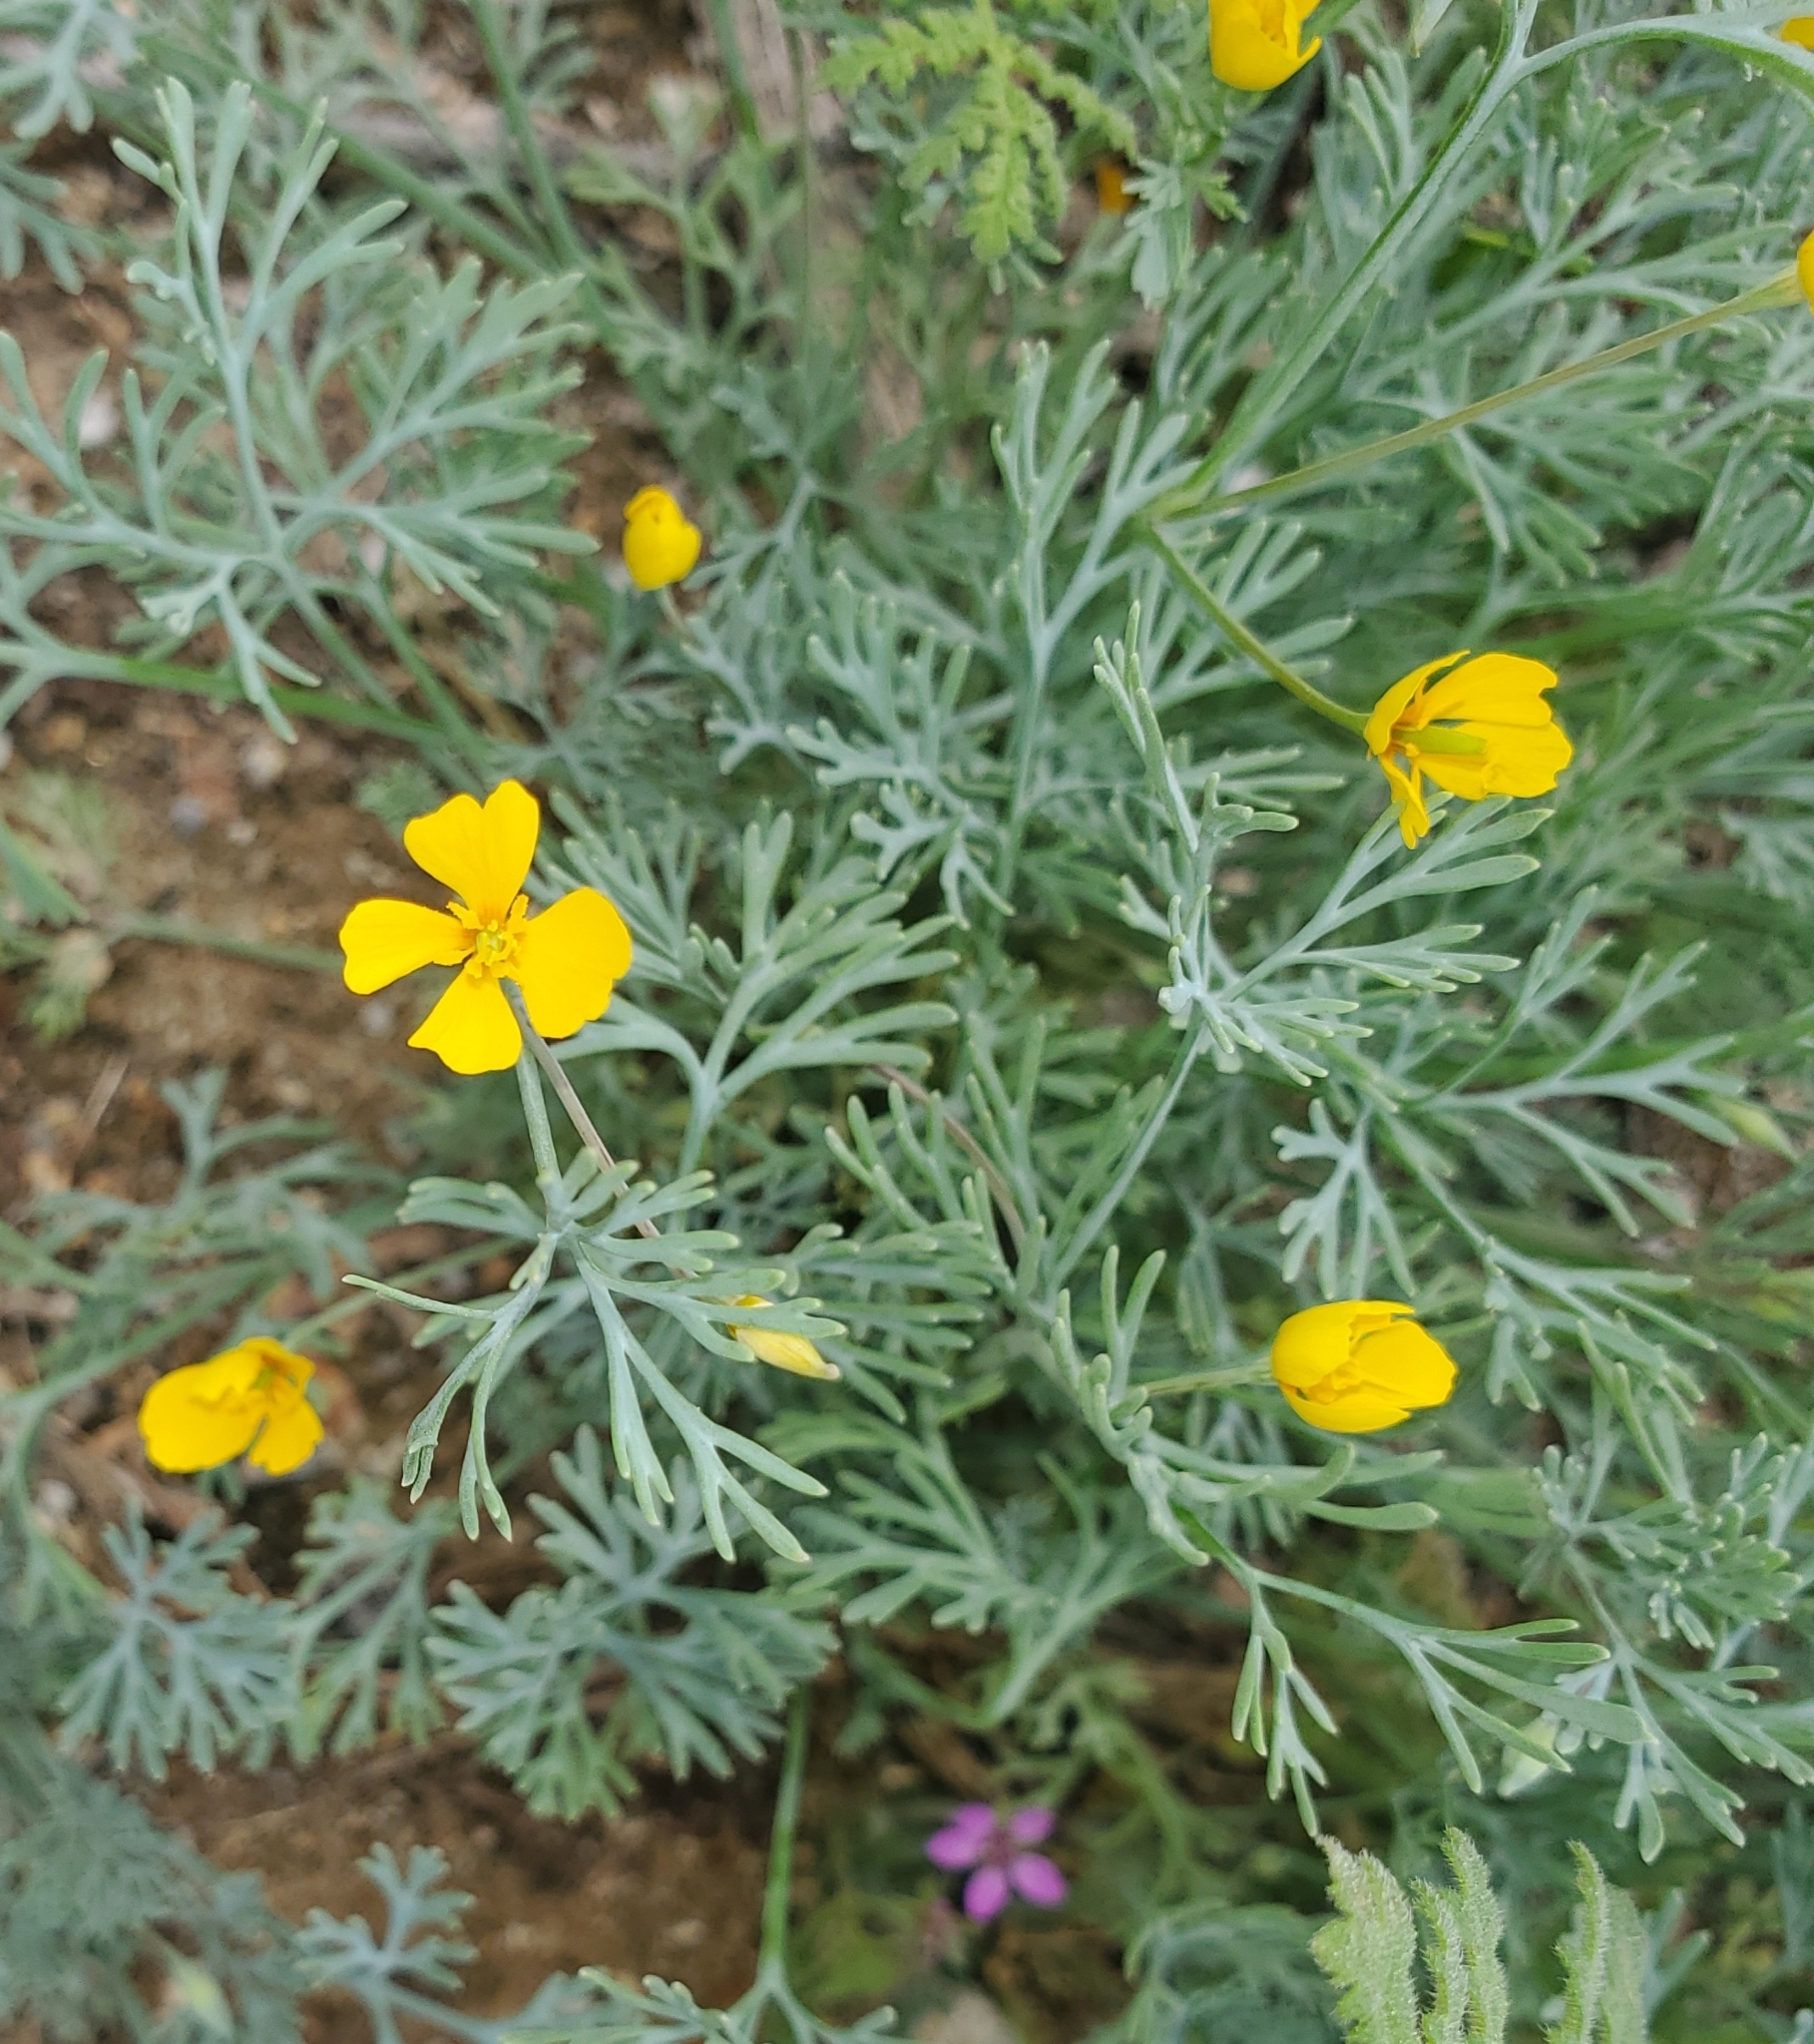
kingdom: Plantae
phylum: Tracheophyta
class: Magnoliopsida
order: Ranunculales
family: Papaveraceae
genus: Eschscholzia
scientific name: Eschscholzia minutiflora
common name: Small-flower california-poppy
